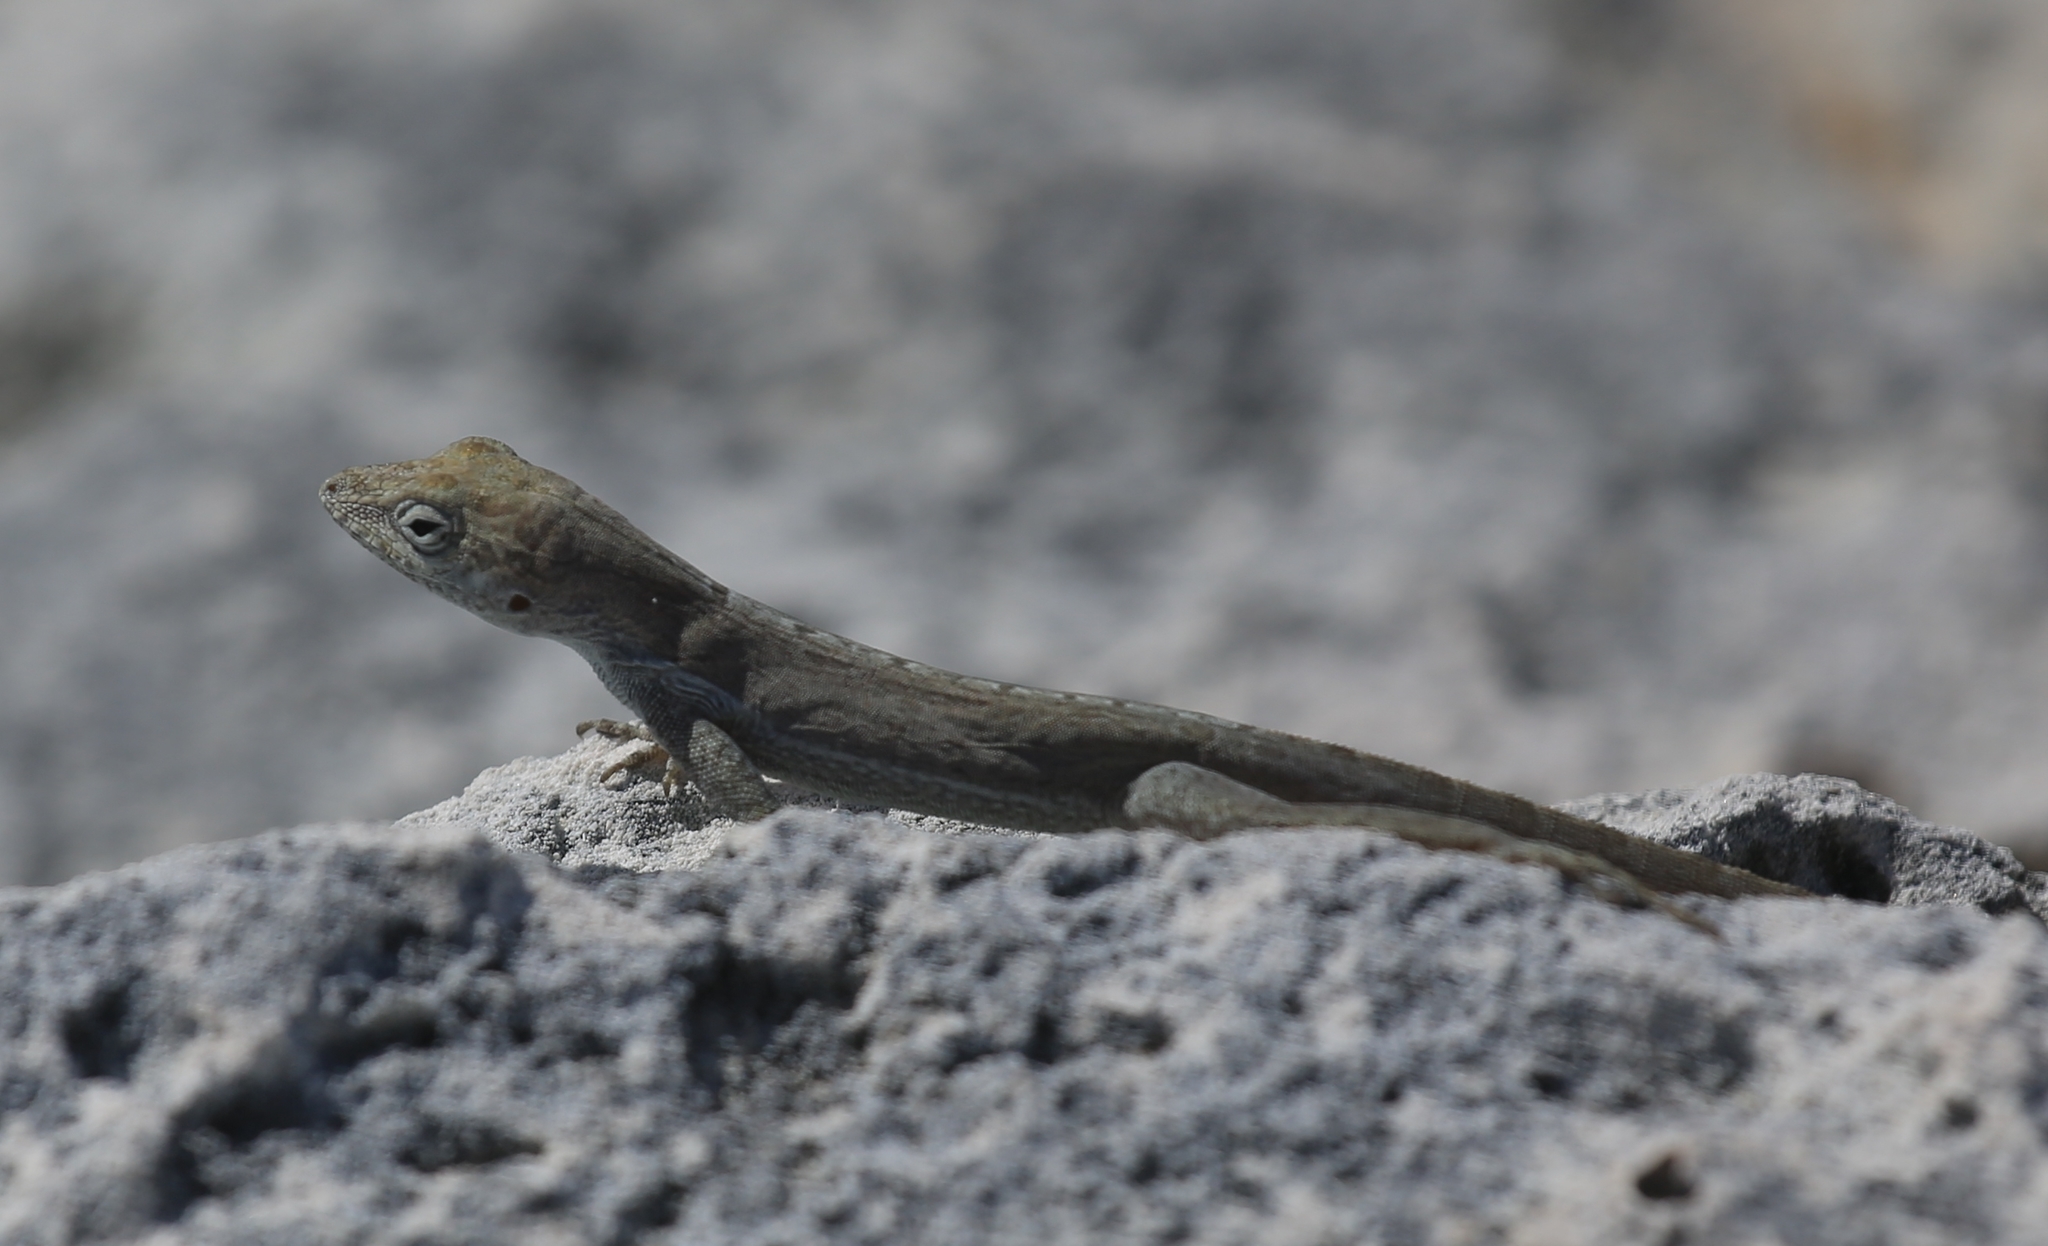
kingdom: Animalia
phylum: Chordata
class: Squamata
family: Dactyloidae
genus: Anolis
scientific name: Anolis scriptus
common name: Silver key anole
